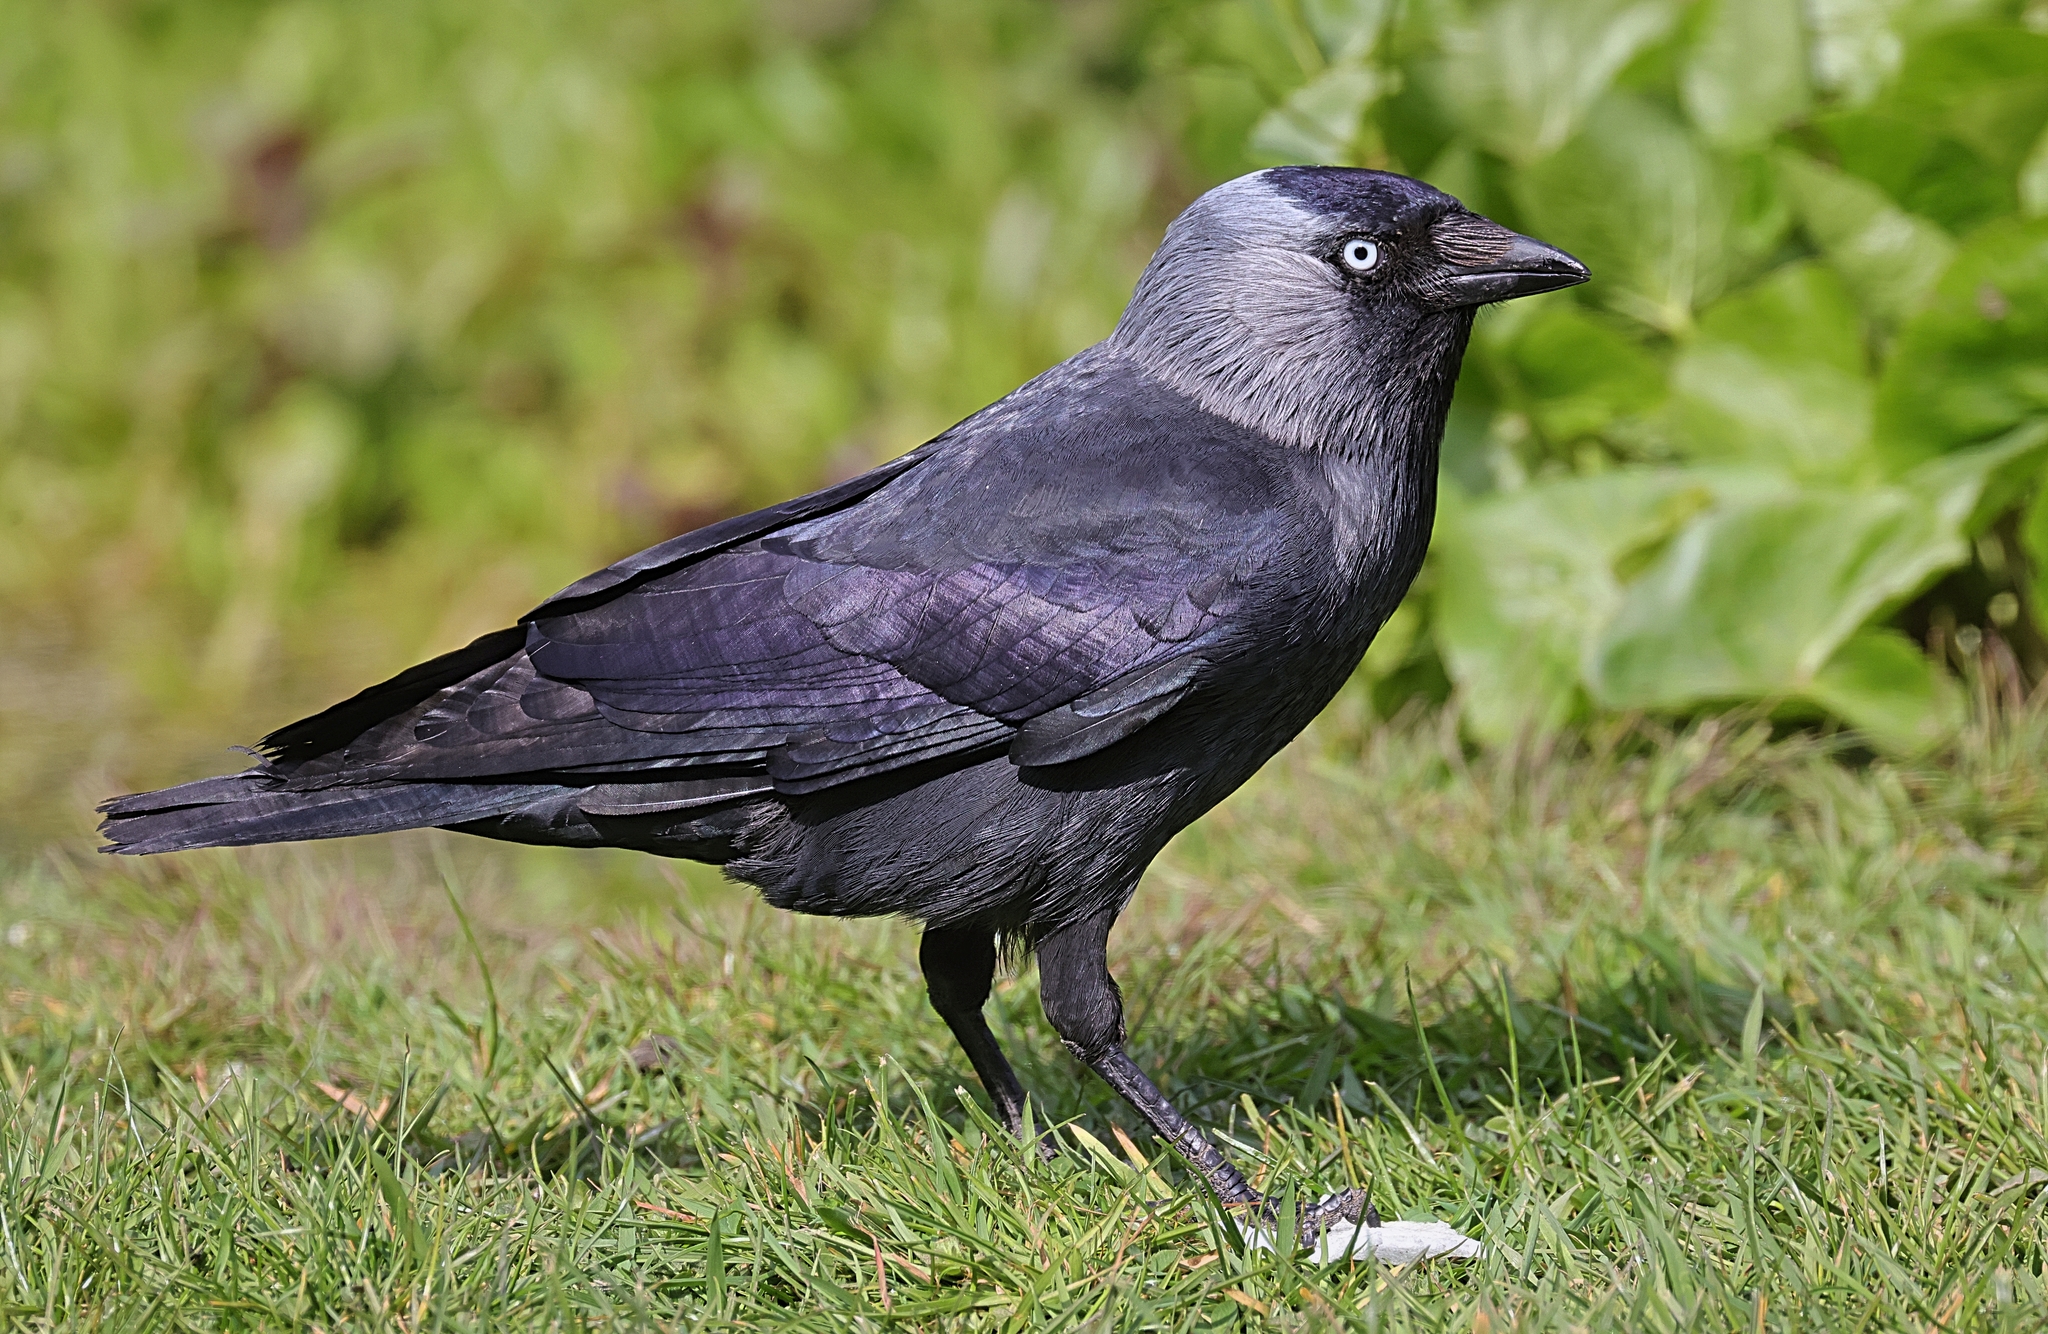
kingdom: Animalia
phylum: Chordata
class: Aves
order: Passeriformes
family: Corvidae
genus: Coloeus
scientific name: Coloeus monedula
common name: Western jackdaw
